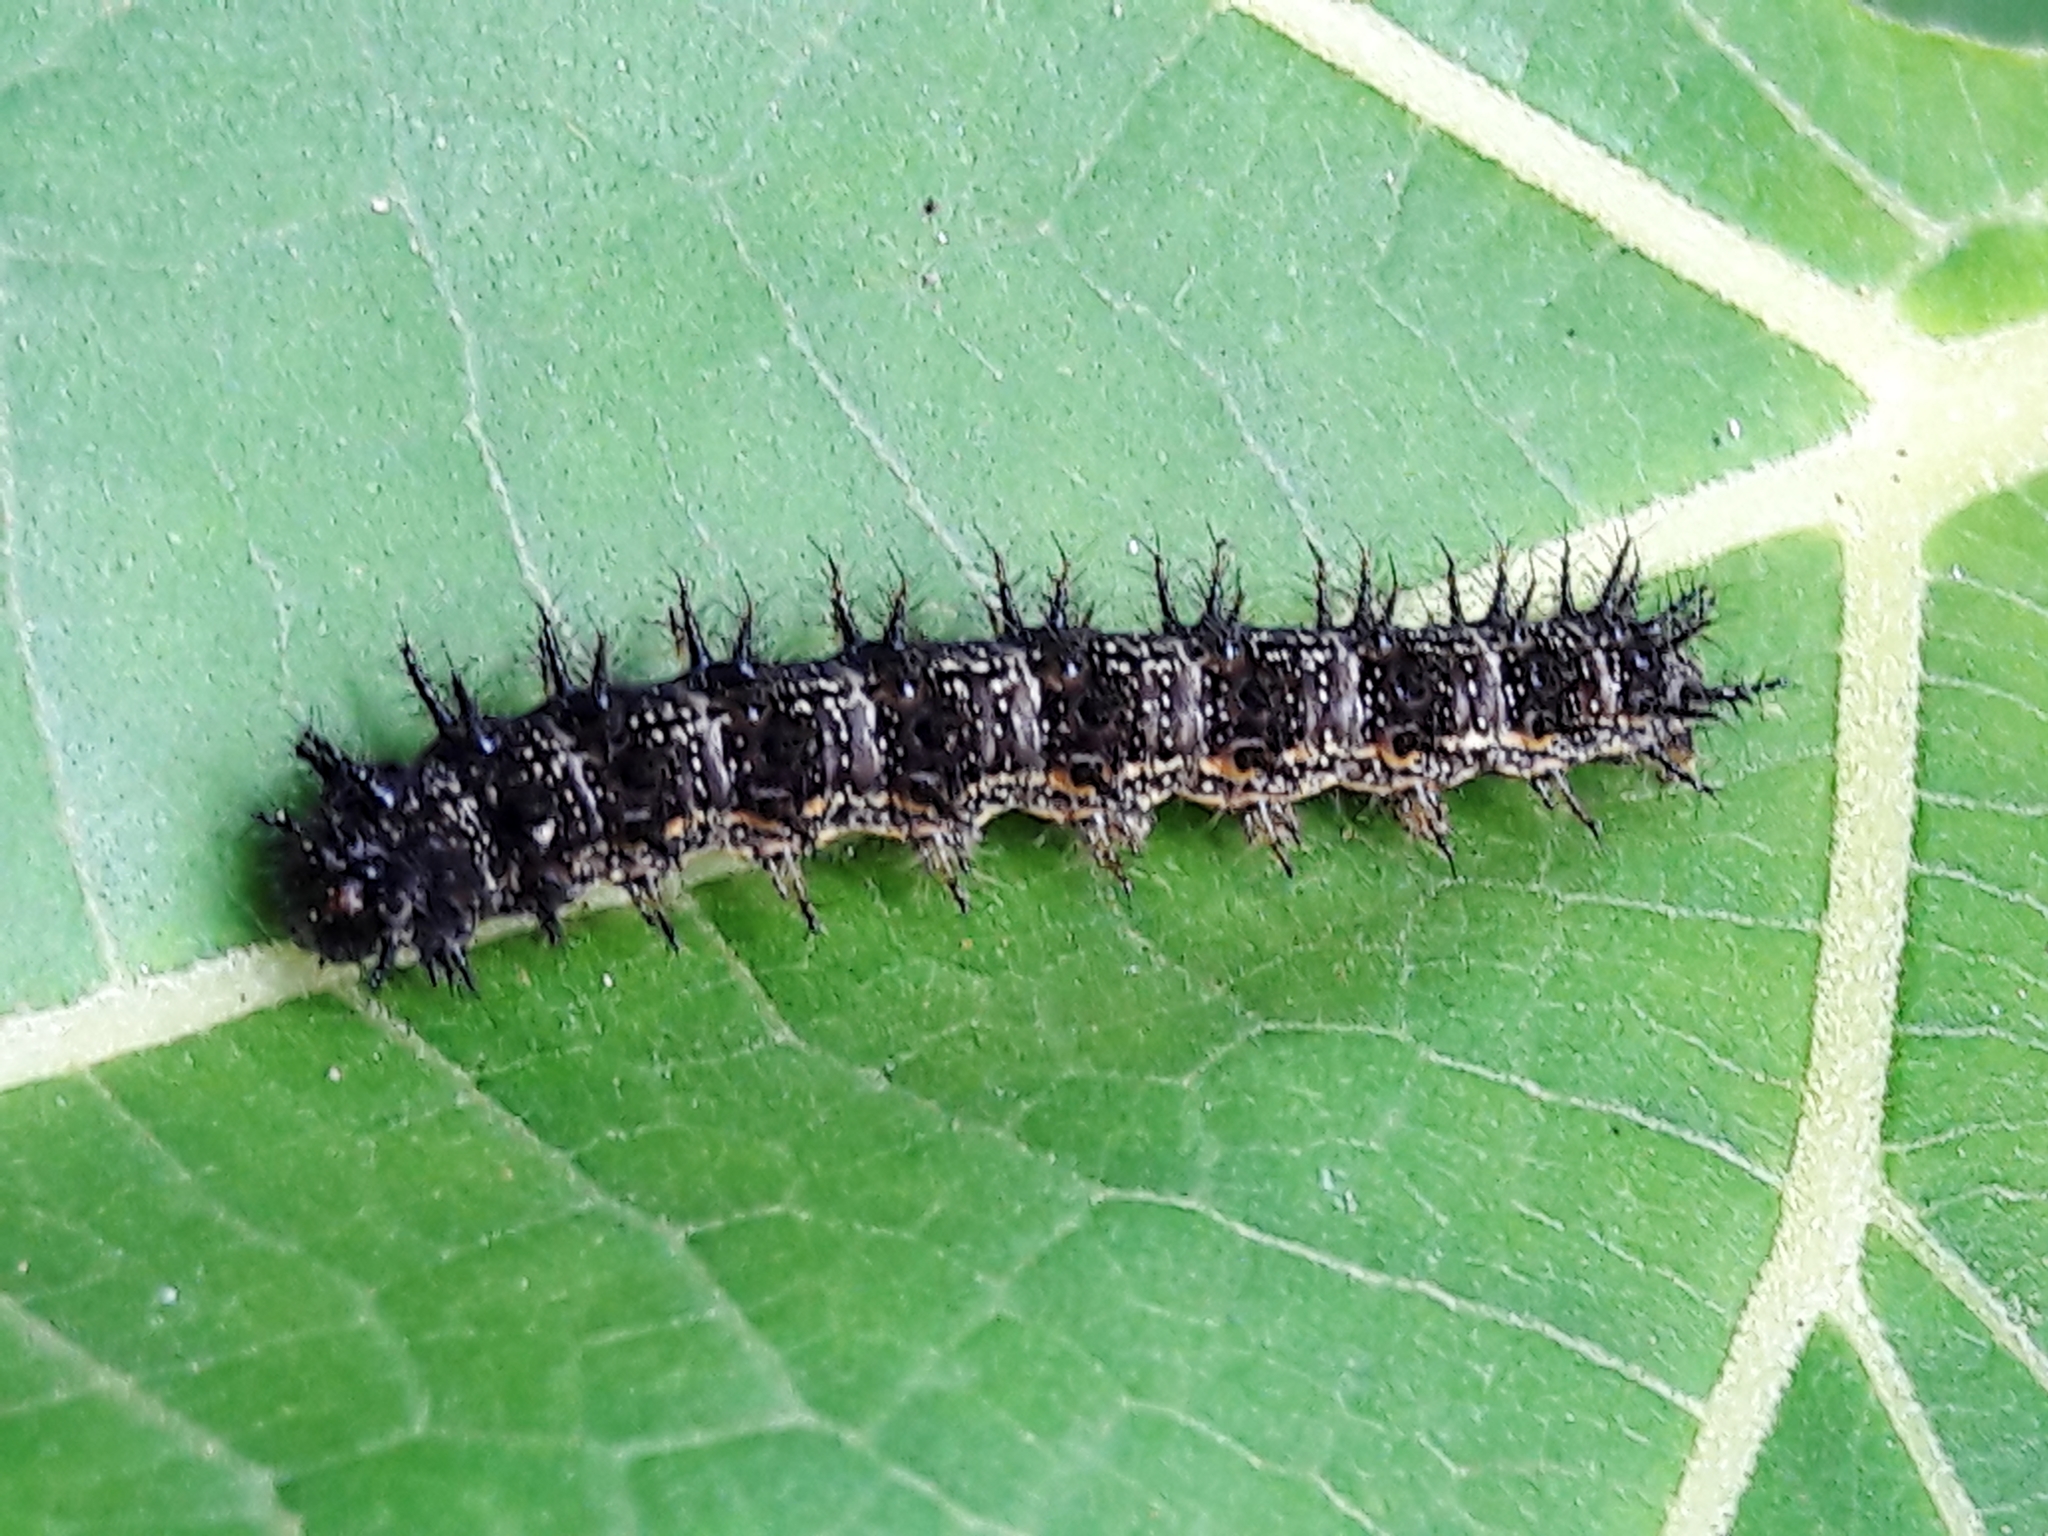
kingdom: Animalia
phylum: Arthropoda
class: Insecta
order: Lepidoptera
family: Nymphalidae
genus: Chlosyne
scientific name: Chlosyne lacinia
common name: Bordered patch
